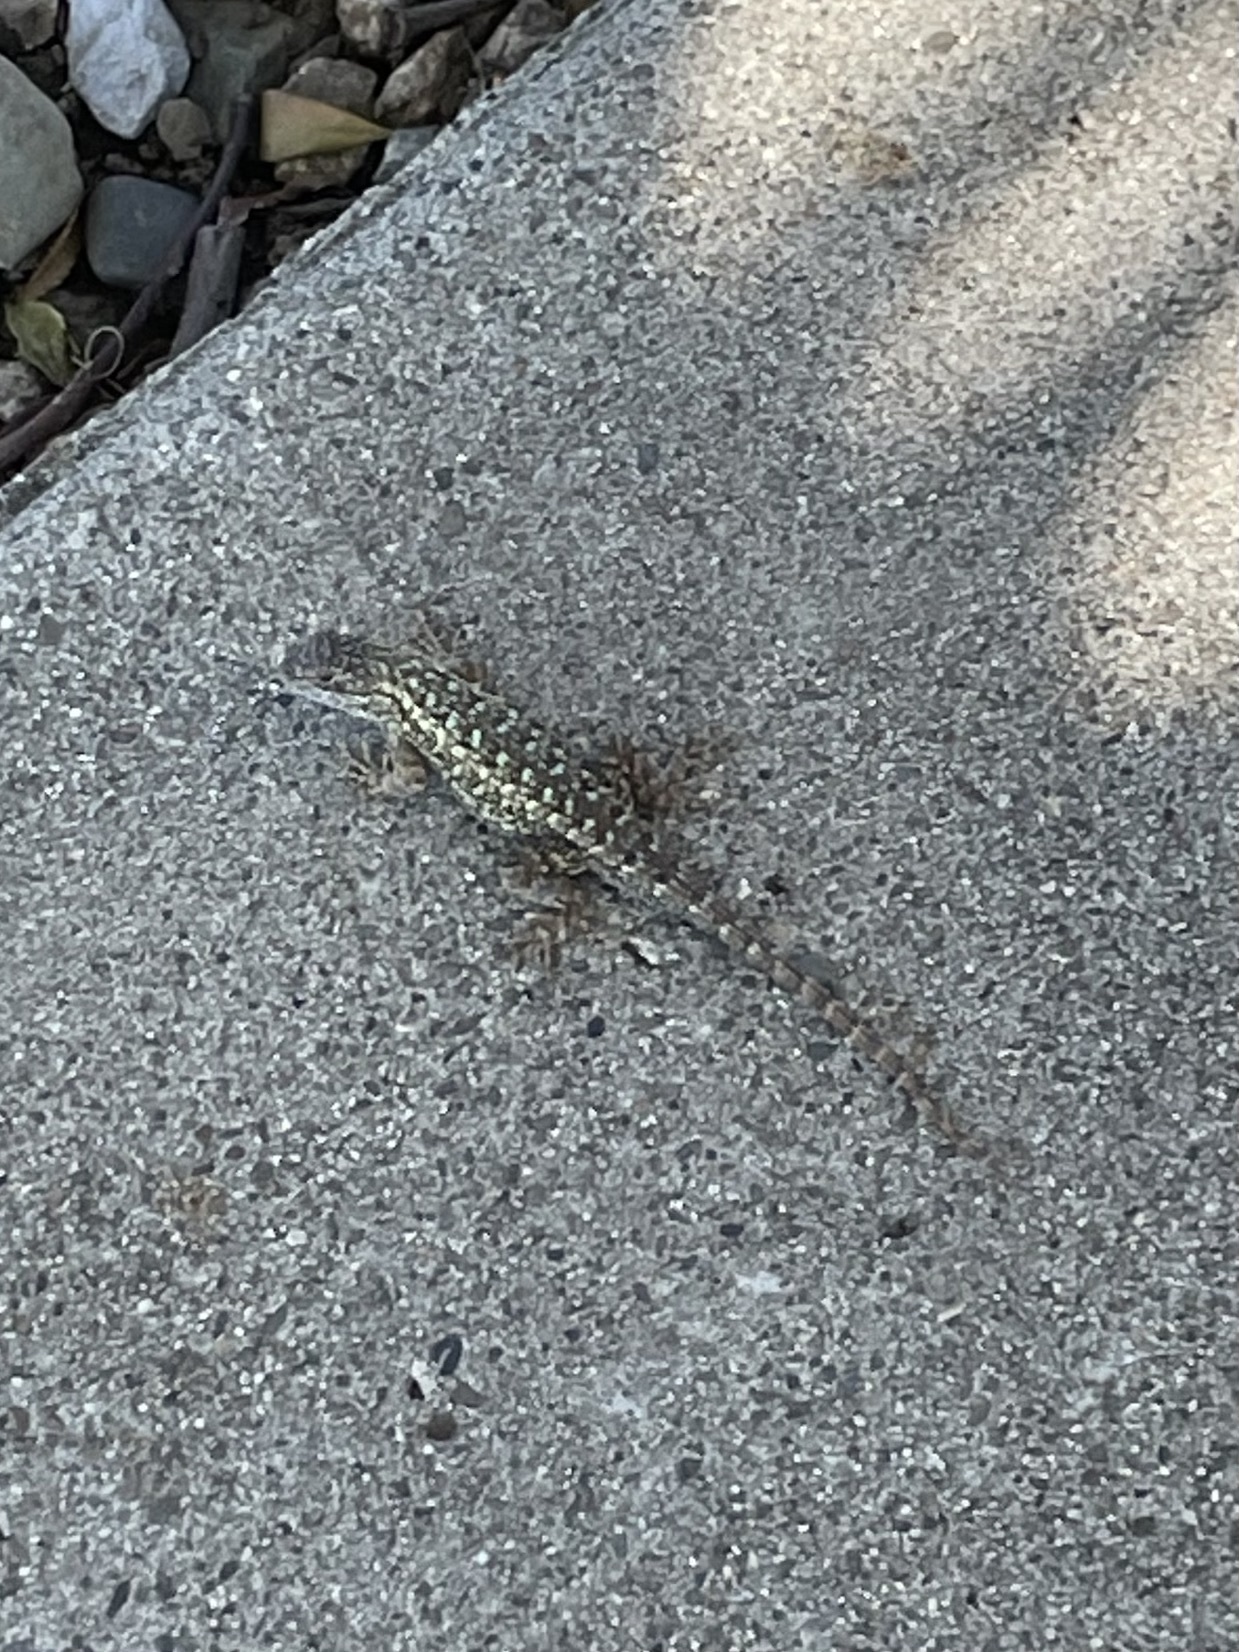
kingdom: Animalia
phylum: Chordata
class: Squamata
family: Phrynosomatidae
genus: Sceloporus
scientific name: Sceloporus occidentalis
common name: Western fence lizard
